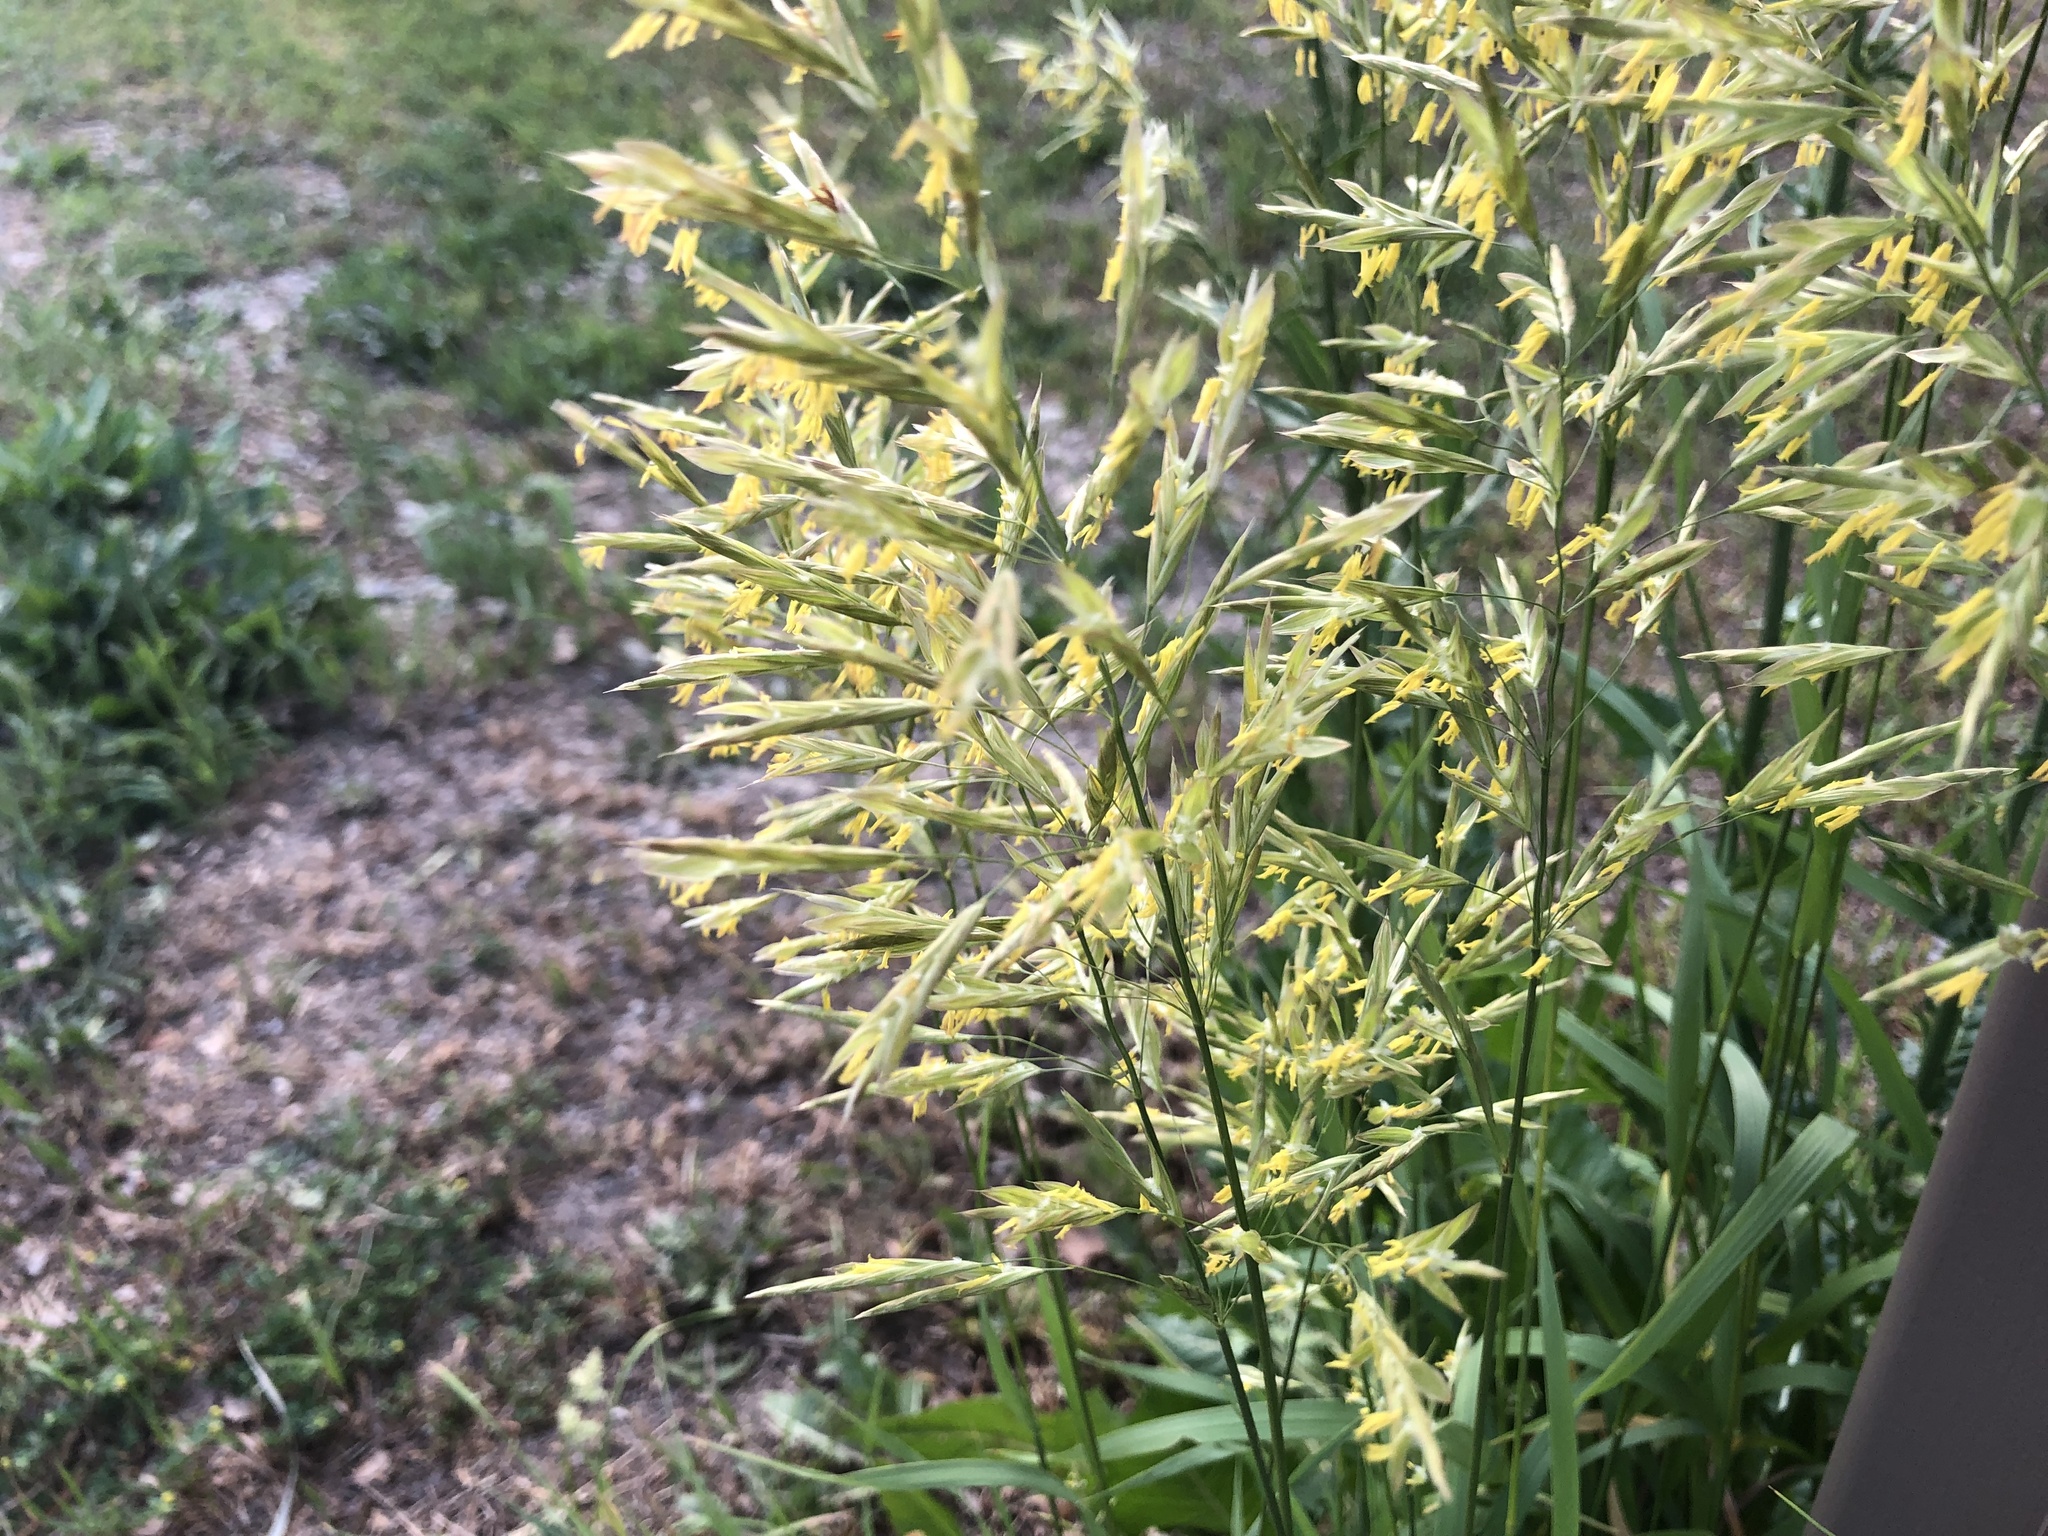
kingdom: Plantae
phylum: Tracheophyta
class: Liliopsida
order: Poales
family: Poaceae
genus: Bromus
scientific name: Bromus inermis
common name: Smooth brome
